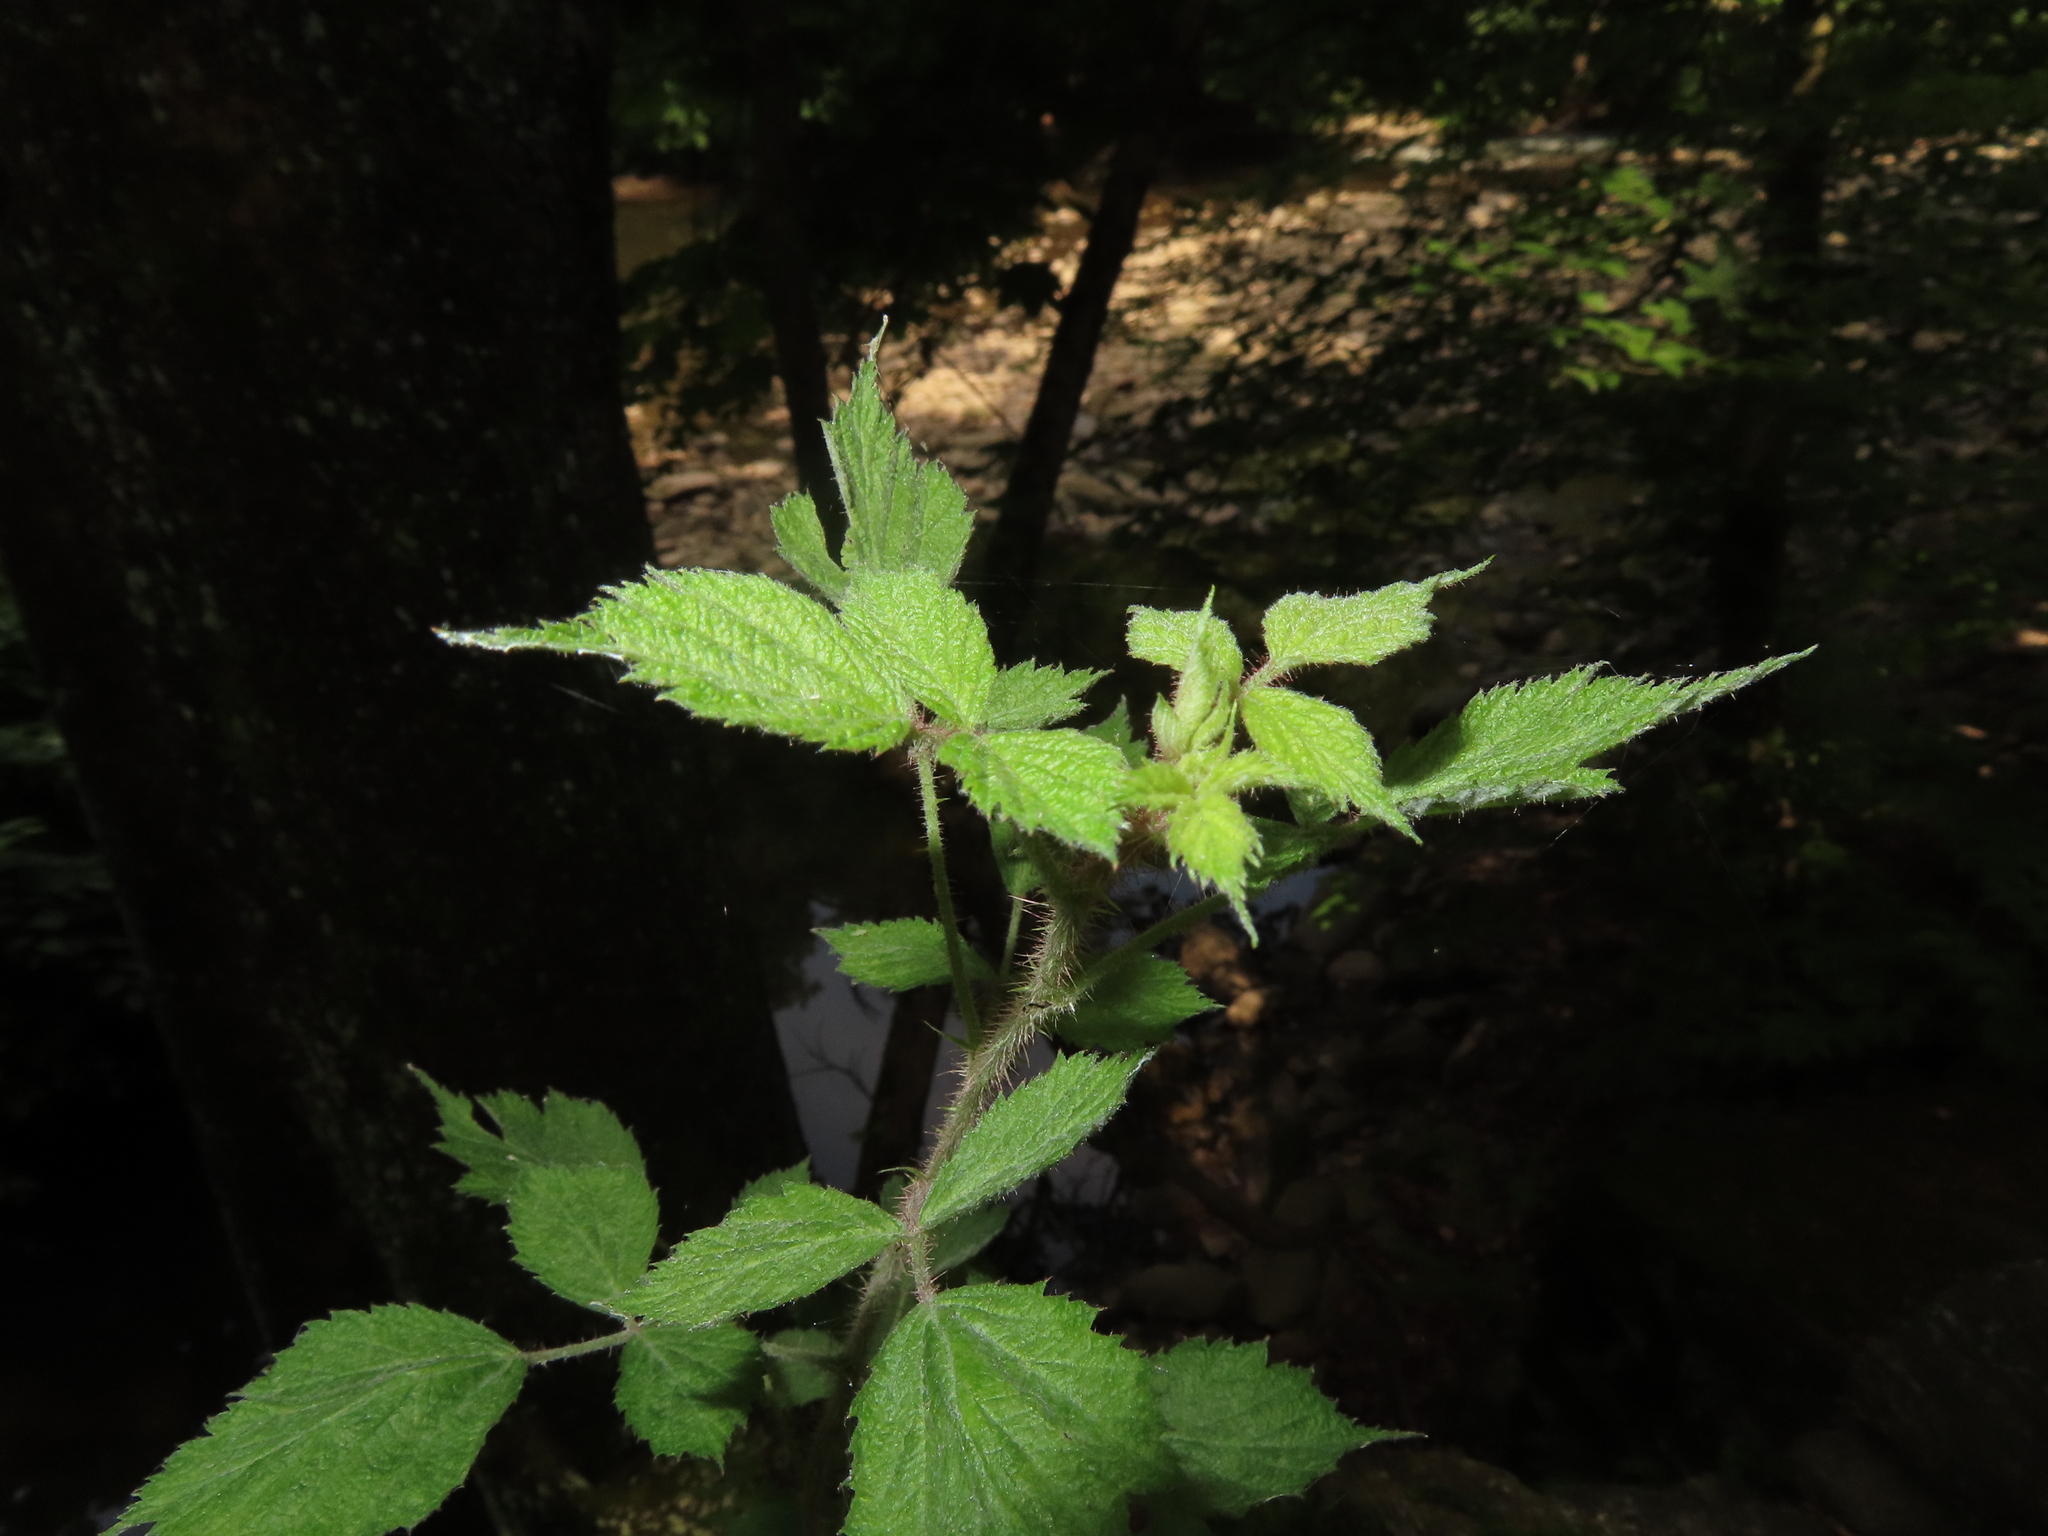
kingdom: Plantae
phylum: Tracheophyta
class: Magnoliopsida
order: Rosales
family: Rosaceae
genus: Rubus
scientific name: Rubus phoenicolasius
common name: Japanese wineberry
